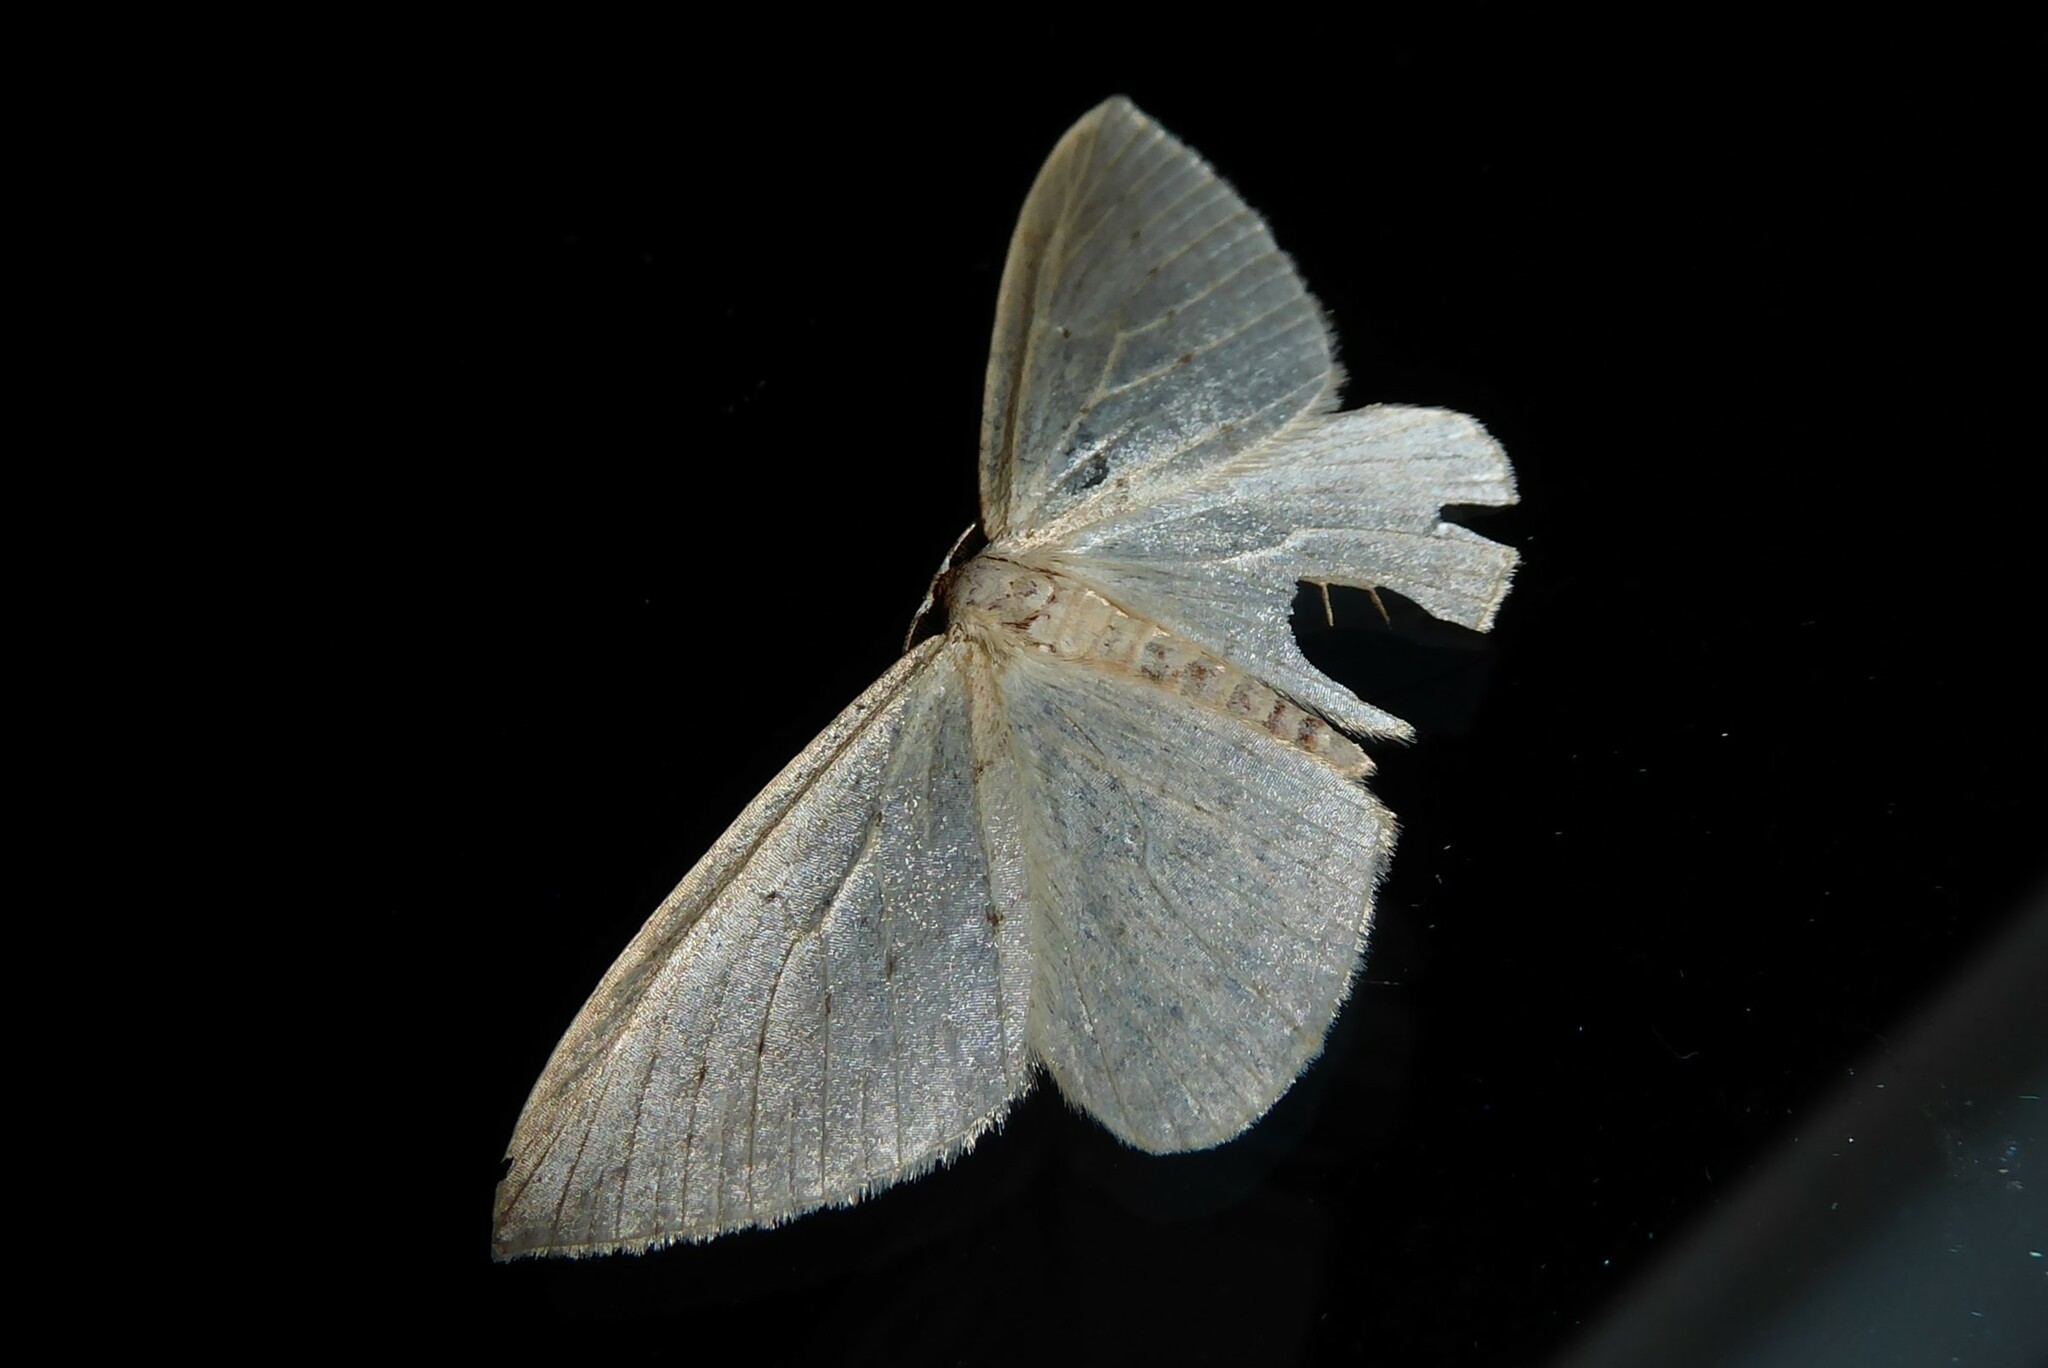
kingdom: Animalia
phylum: Arthropoda
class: Insecta
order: Lepidoptera
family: Geometridae
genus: Orthoclydon
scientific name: Orthoclydon praefectata
